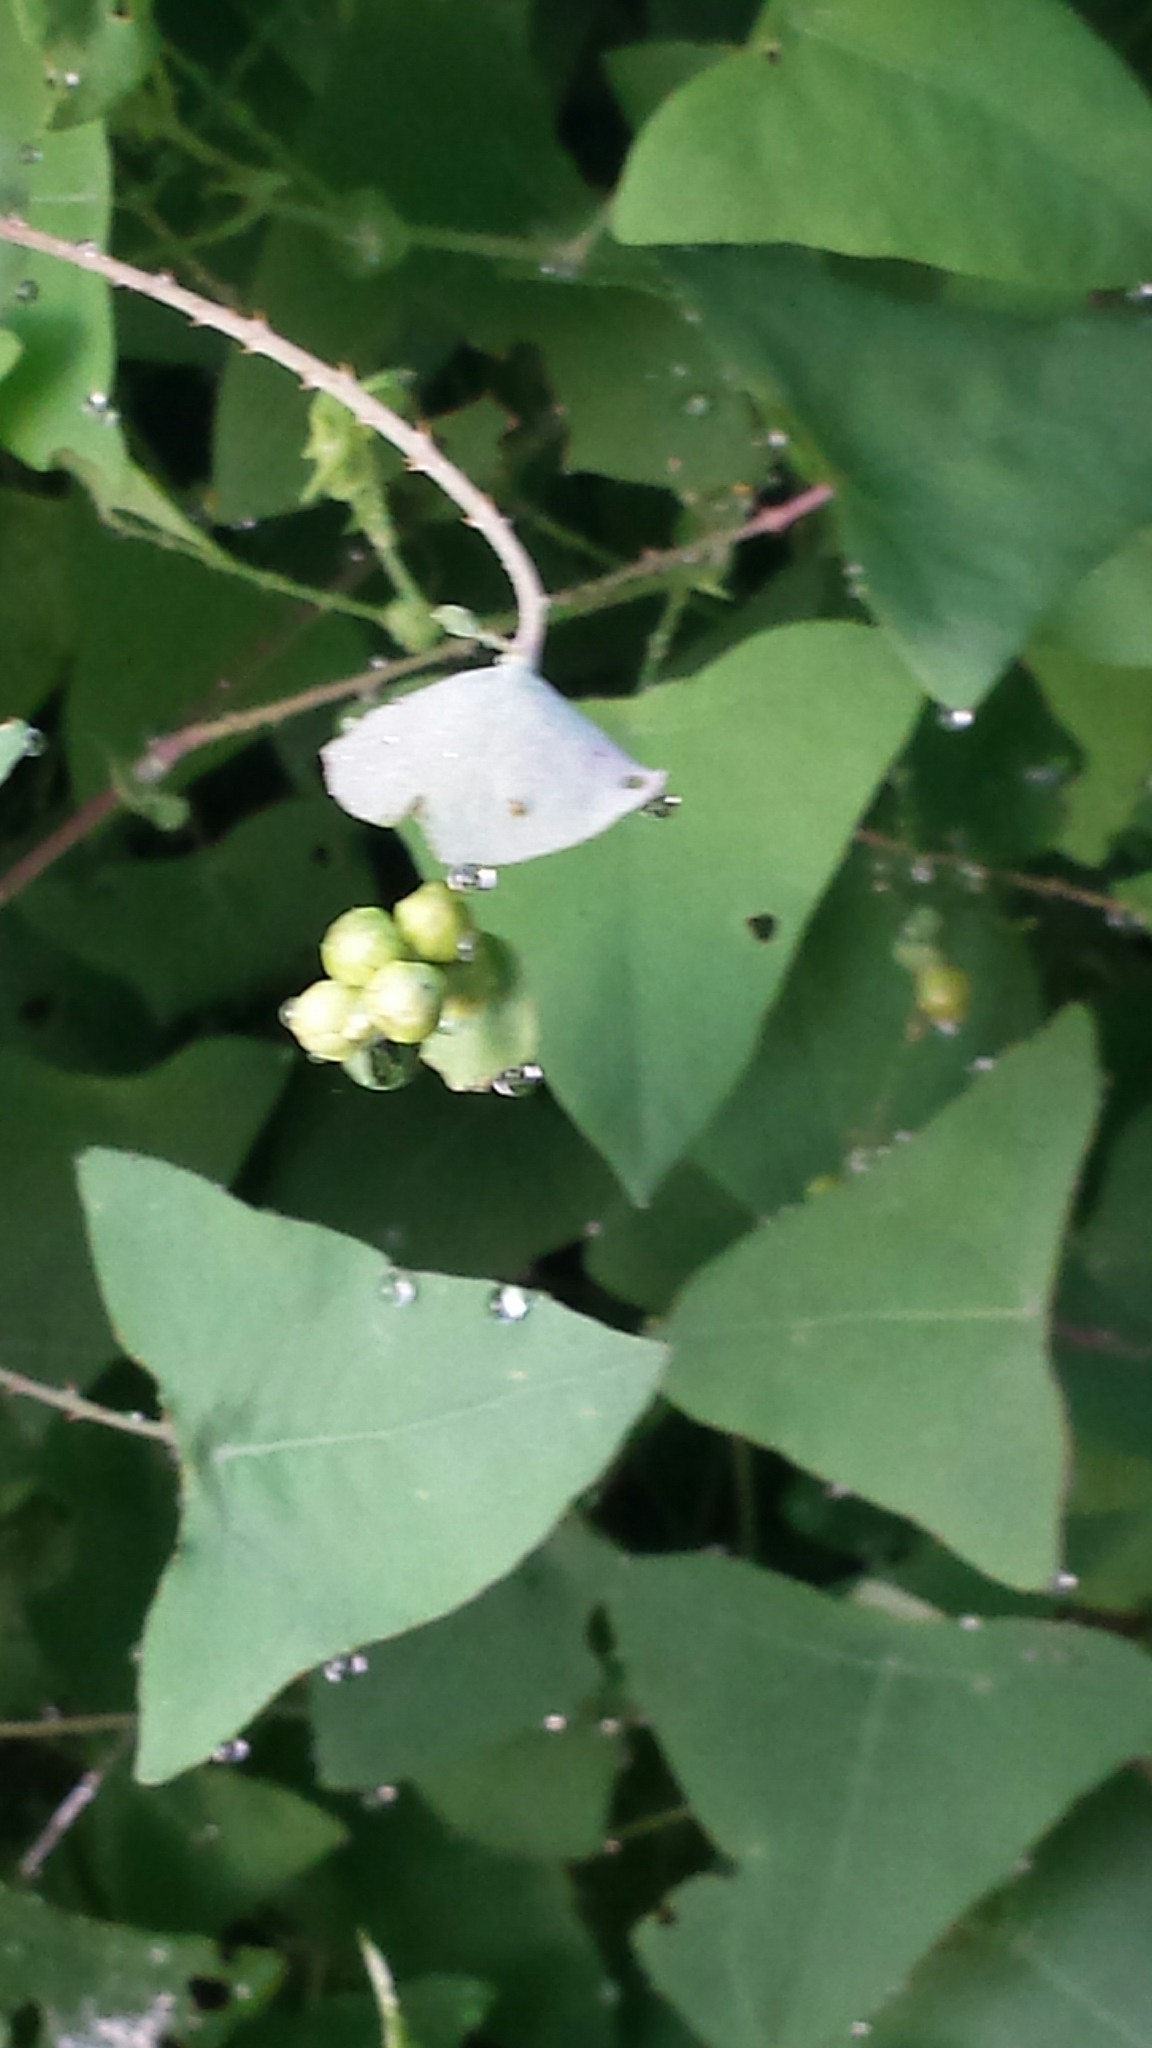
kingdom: Plantae
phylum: Tracheophyta
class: Magnoliopsida
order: Caryophyllales
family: Polygonaceae
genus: Persicaria
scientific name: Persicaria perfoliata
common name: Asiatic tearthumb
